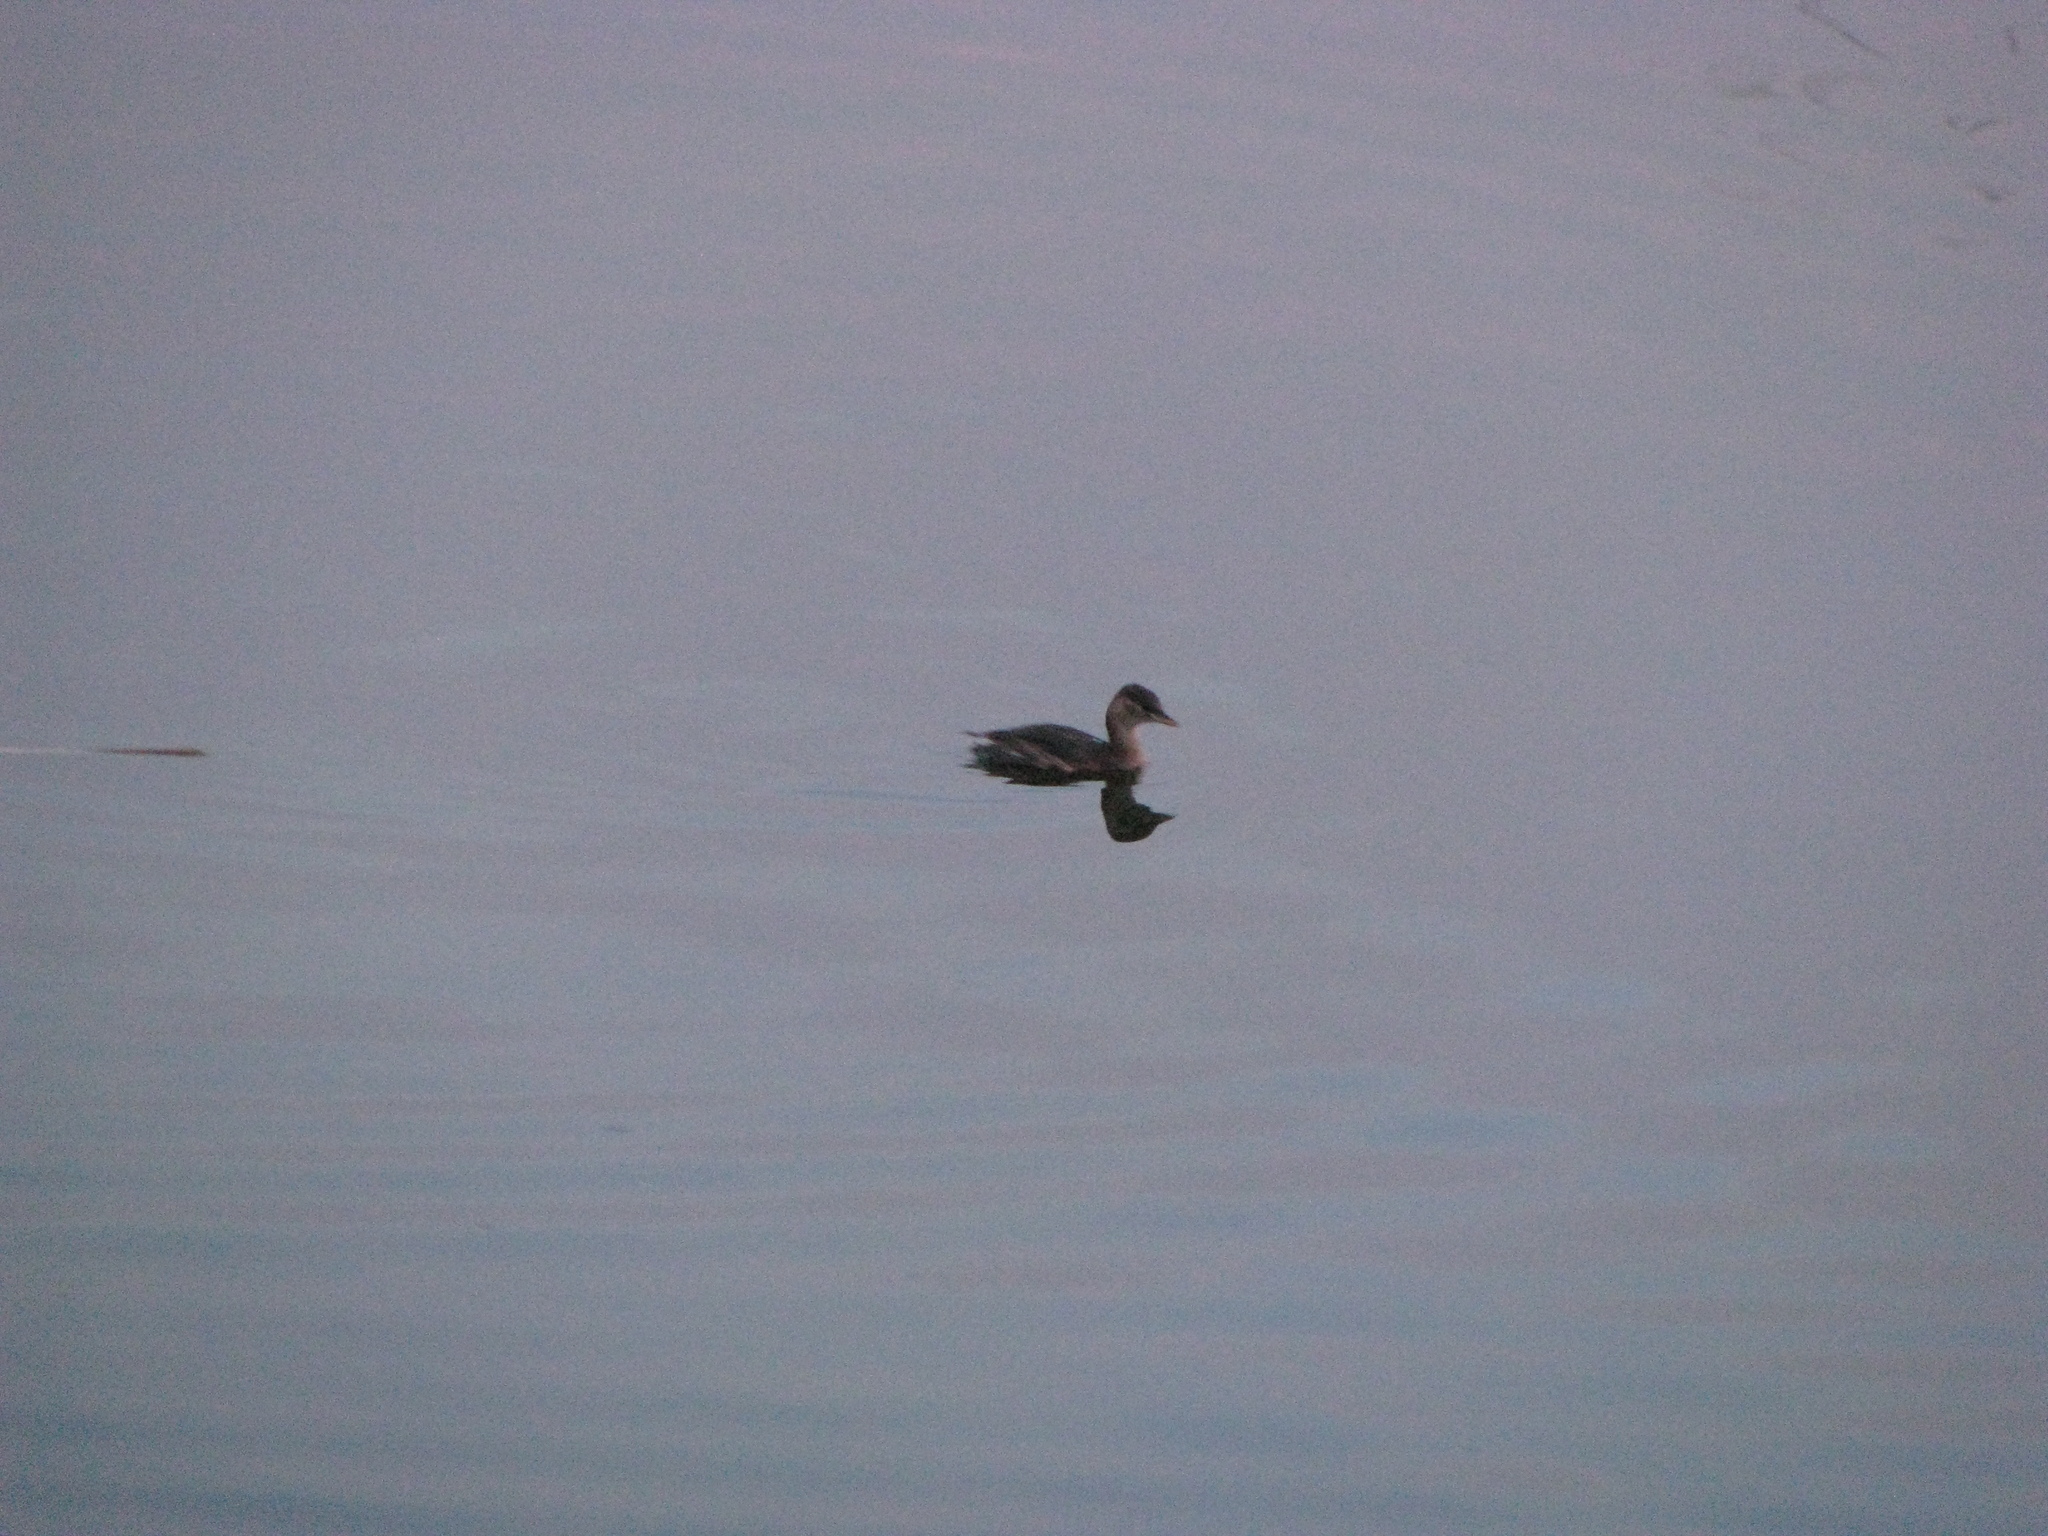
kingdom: Animalia
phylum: Chordata
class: Aves
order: Podicipediformes
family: Podicipedidae
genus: Tachybaptus
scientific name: Tachybaptus ruficollis
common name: Little grebe
